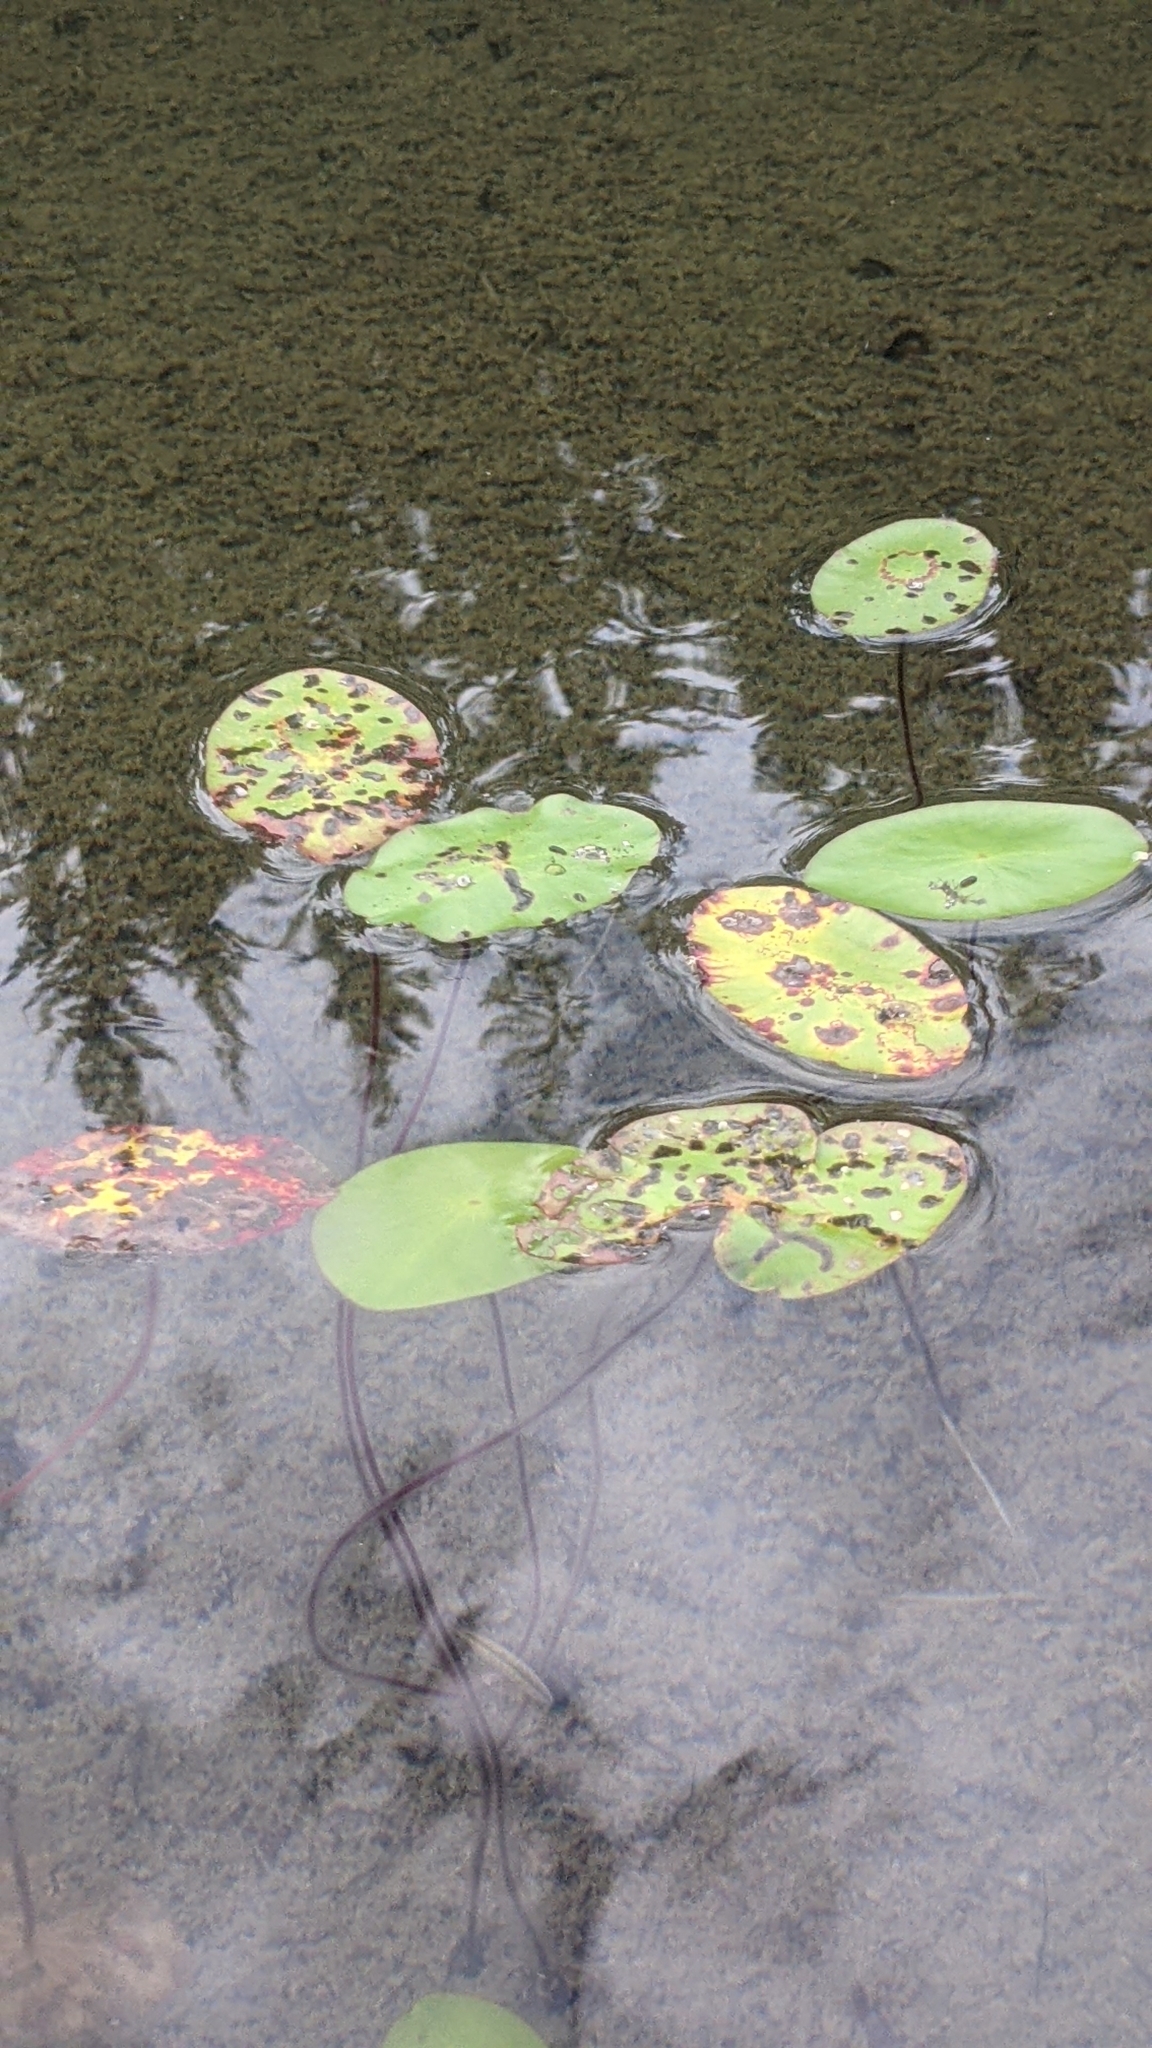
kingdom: Plantae
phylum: Tracheophyta
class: Magnoliopsida
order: Nymphaeales
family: Cabombaceae
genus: Brasenia
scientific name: Brasenia schreberi
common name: Water-shield
